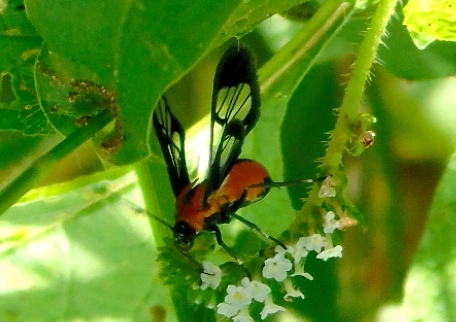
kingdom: Animalia
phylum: Arthropoda
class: Insecta
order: Lepidoptera
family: Erebidae
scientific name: Erebidae
